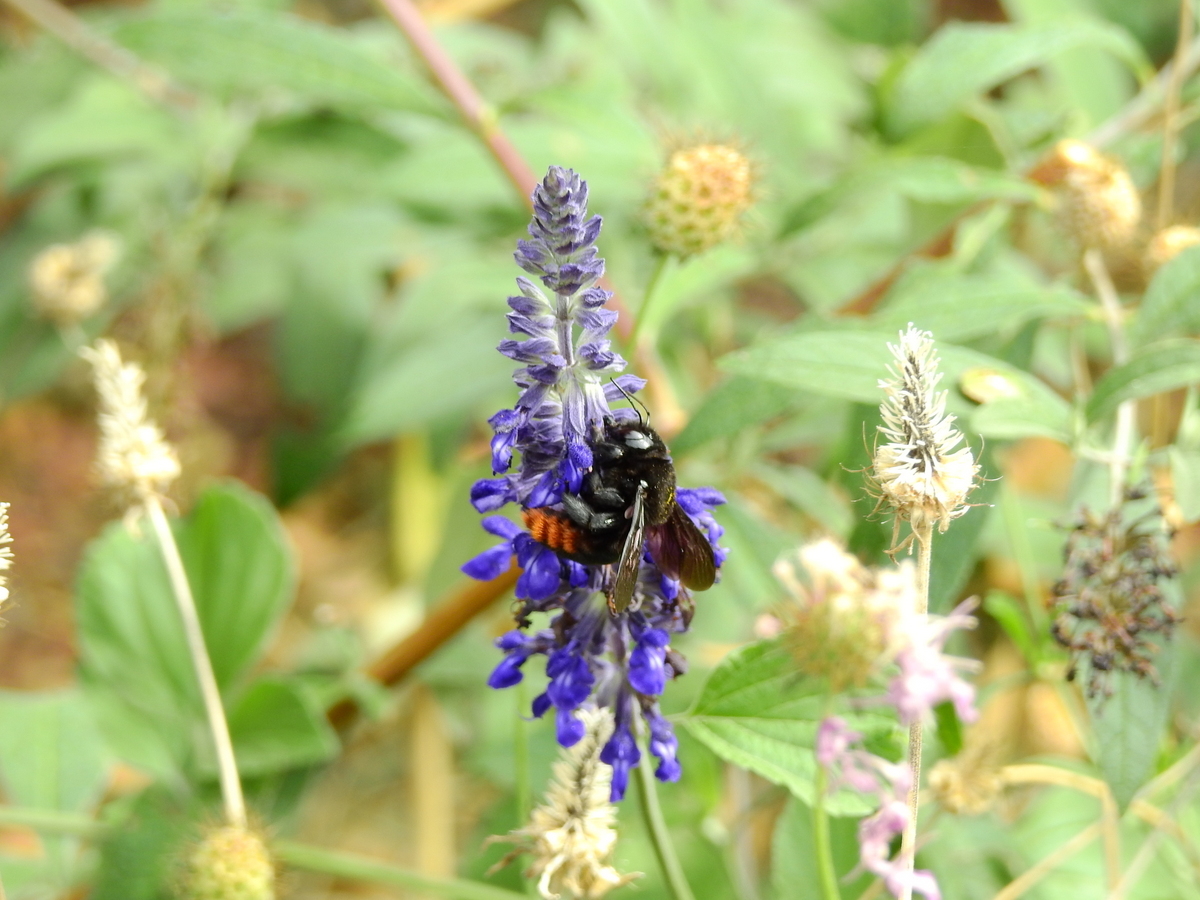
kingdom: Animalia
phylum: Arthropoda
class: Insecta
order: Hymenoptera
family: Apidae
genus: Xylocopa
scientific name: Xylocopa augusti
